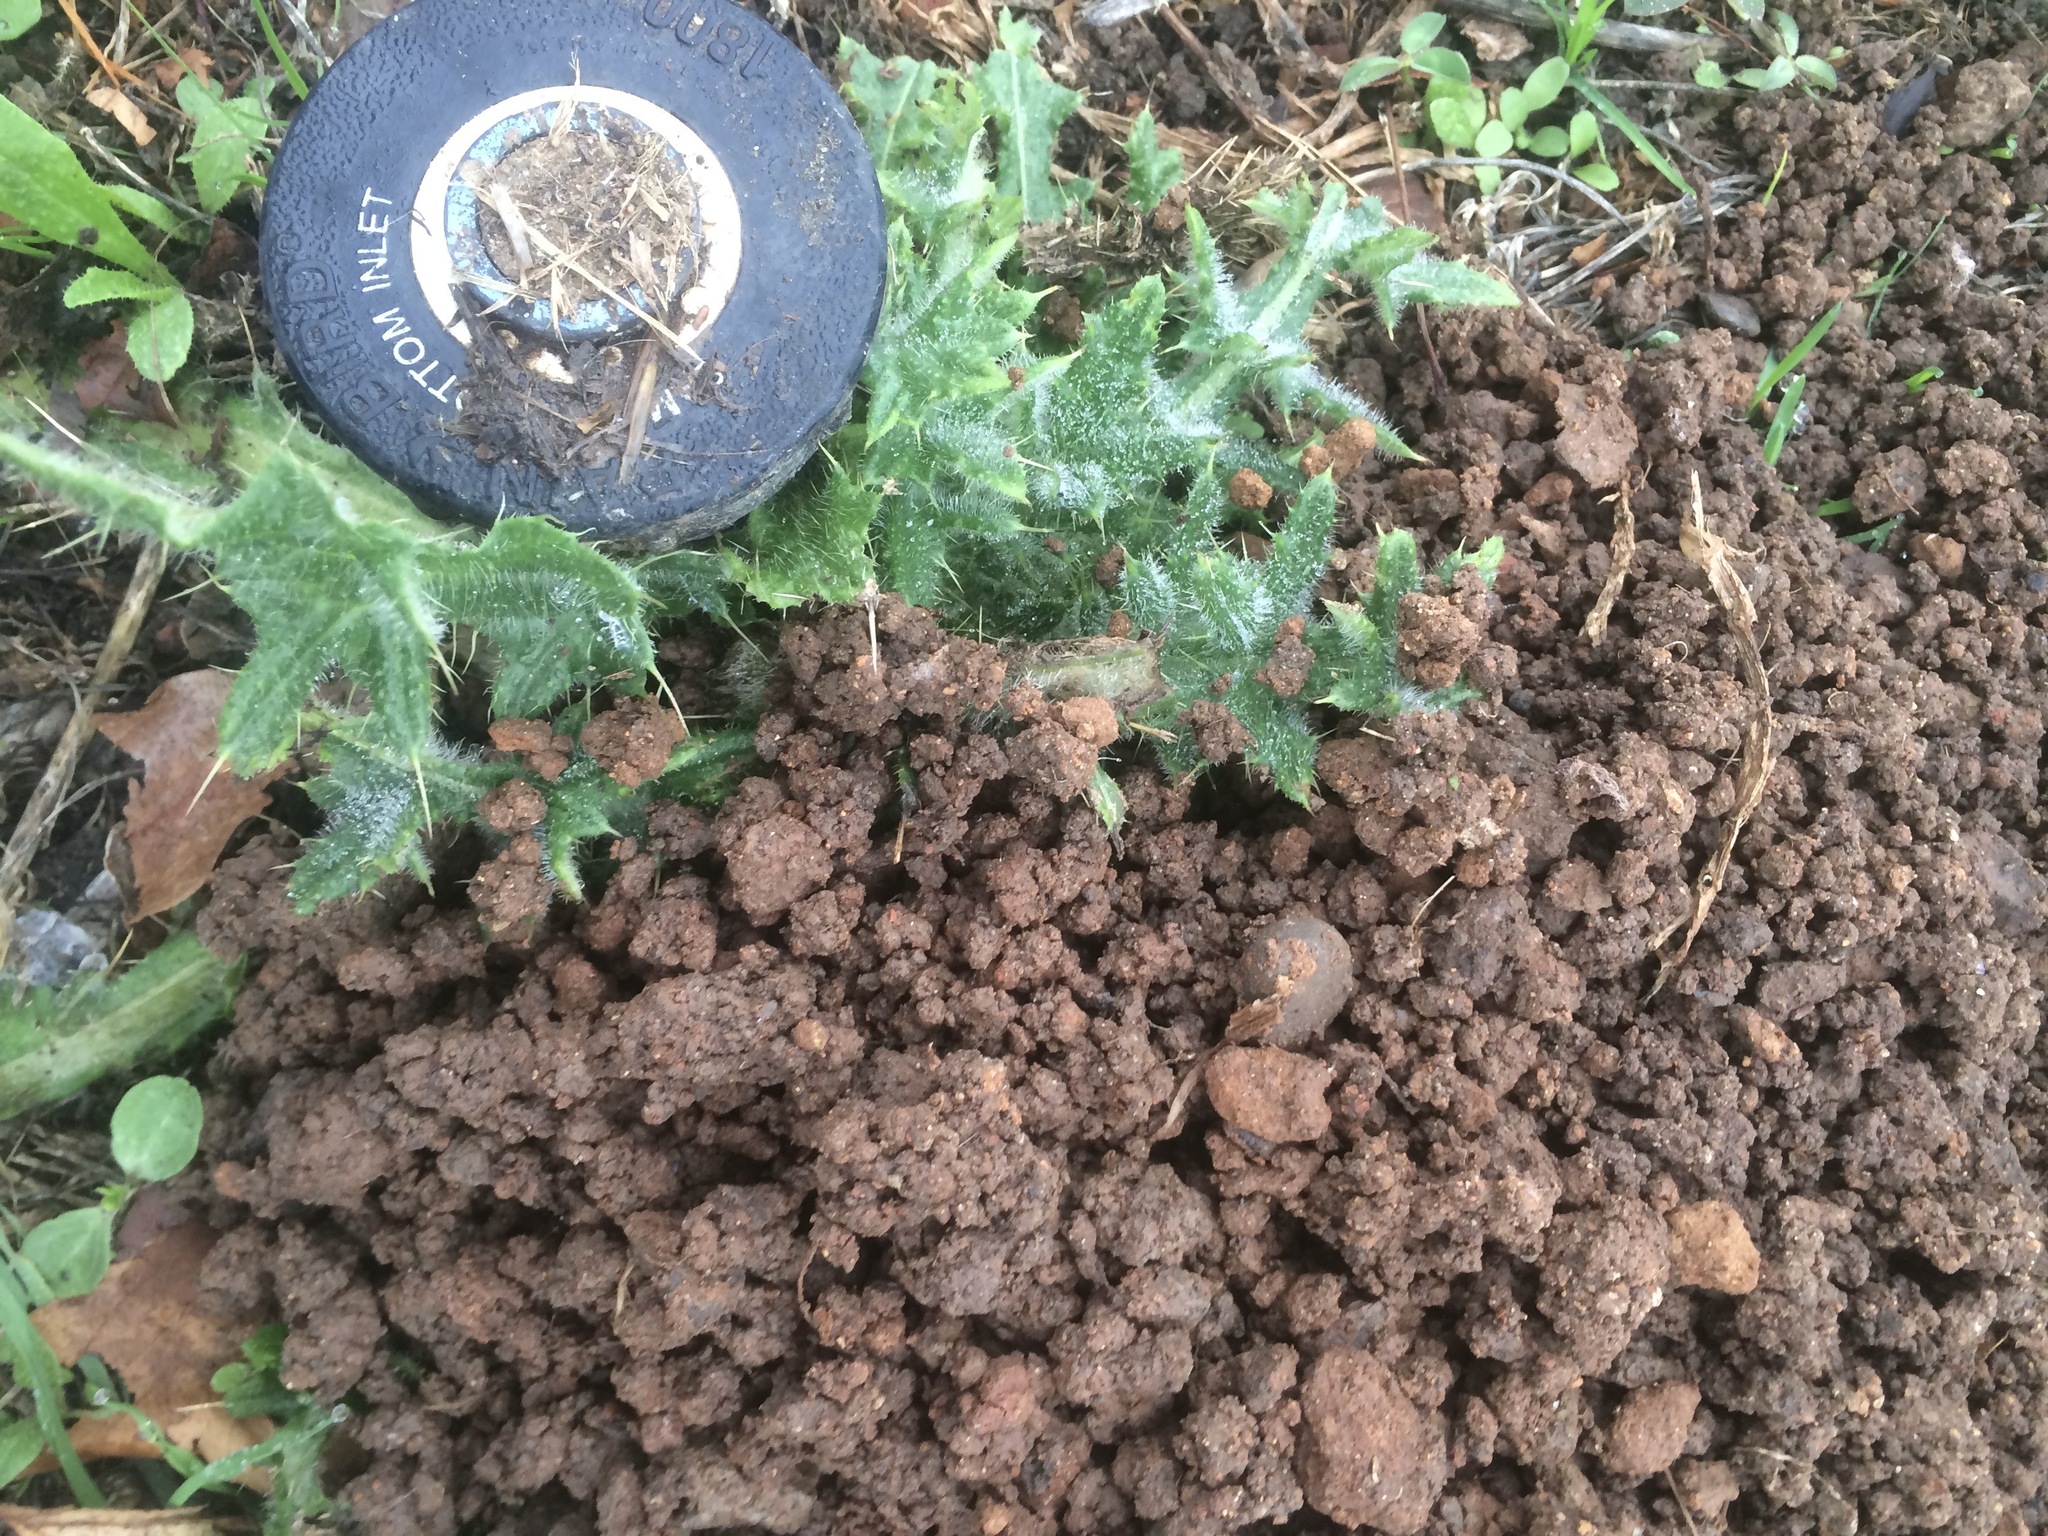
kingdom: Plantae
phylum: Tracheophyta
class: Magnoliopsida
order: Asterales
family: Asteraceae
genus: Cirsium
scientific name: Cirsium vulgare
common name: Bull thistle
